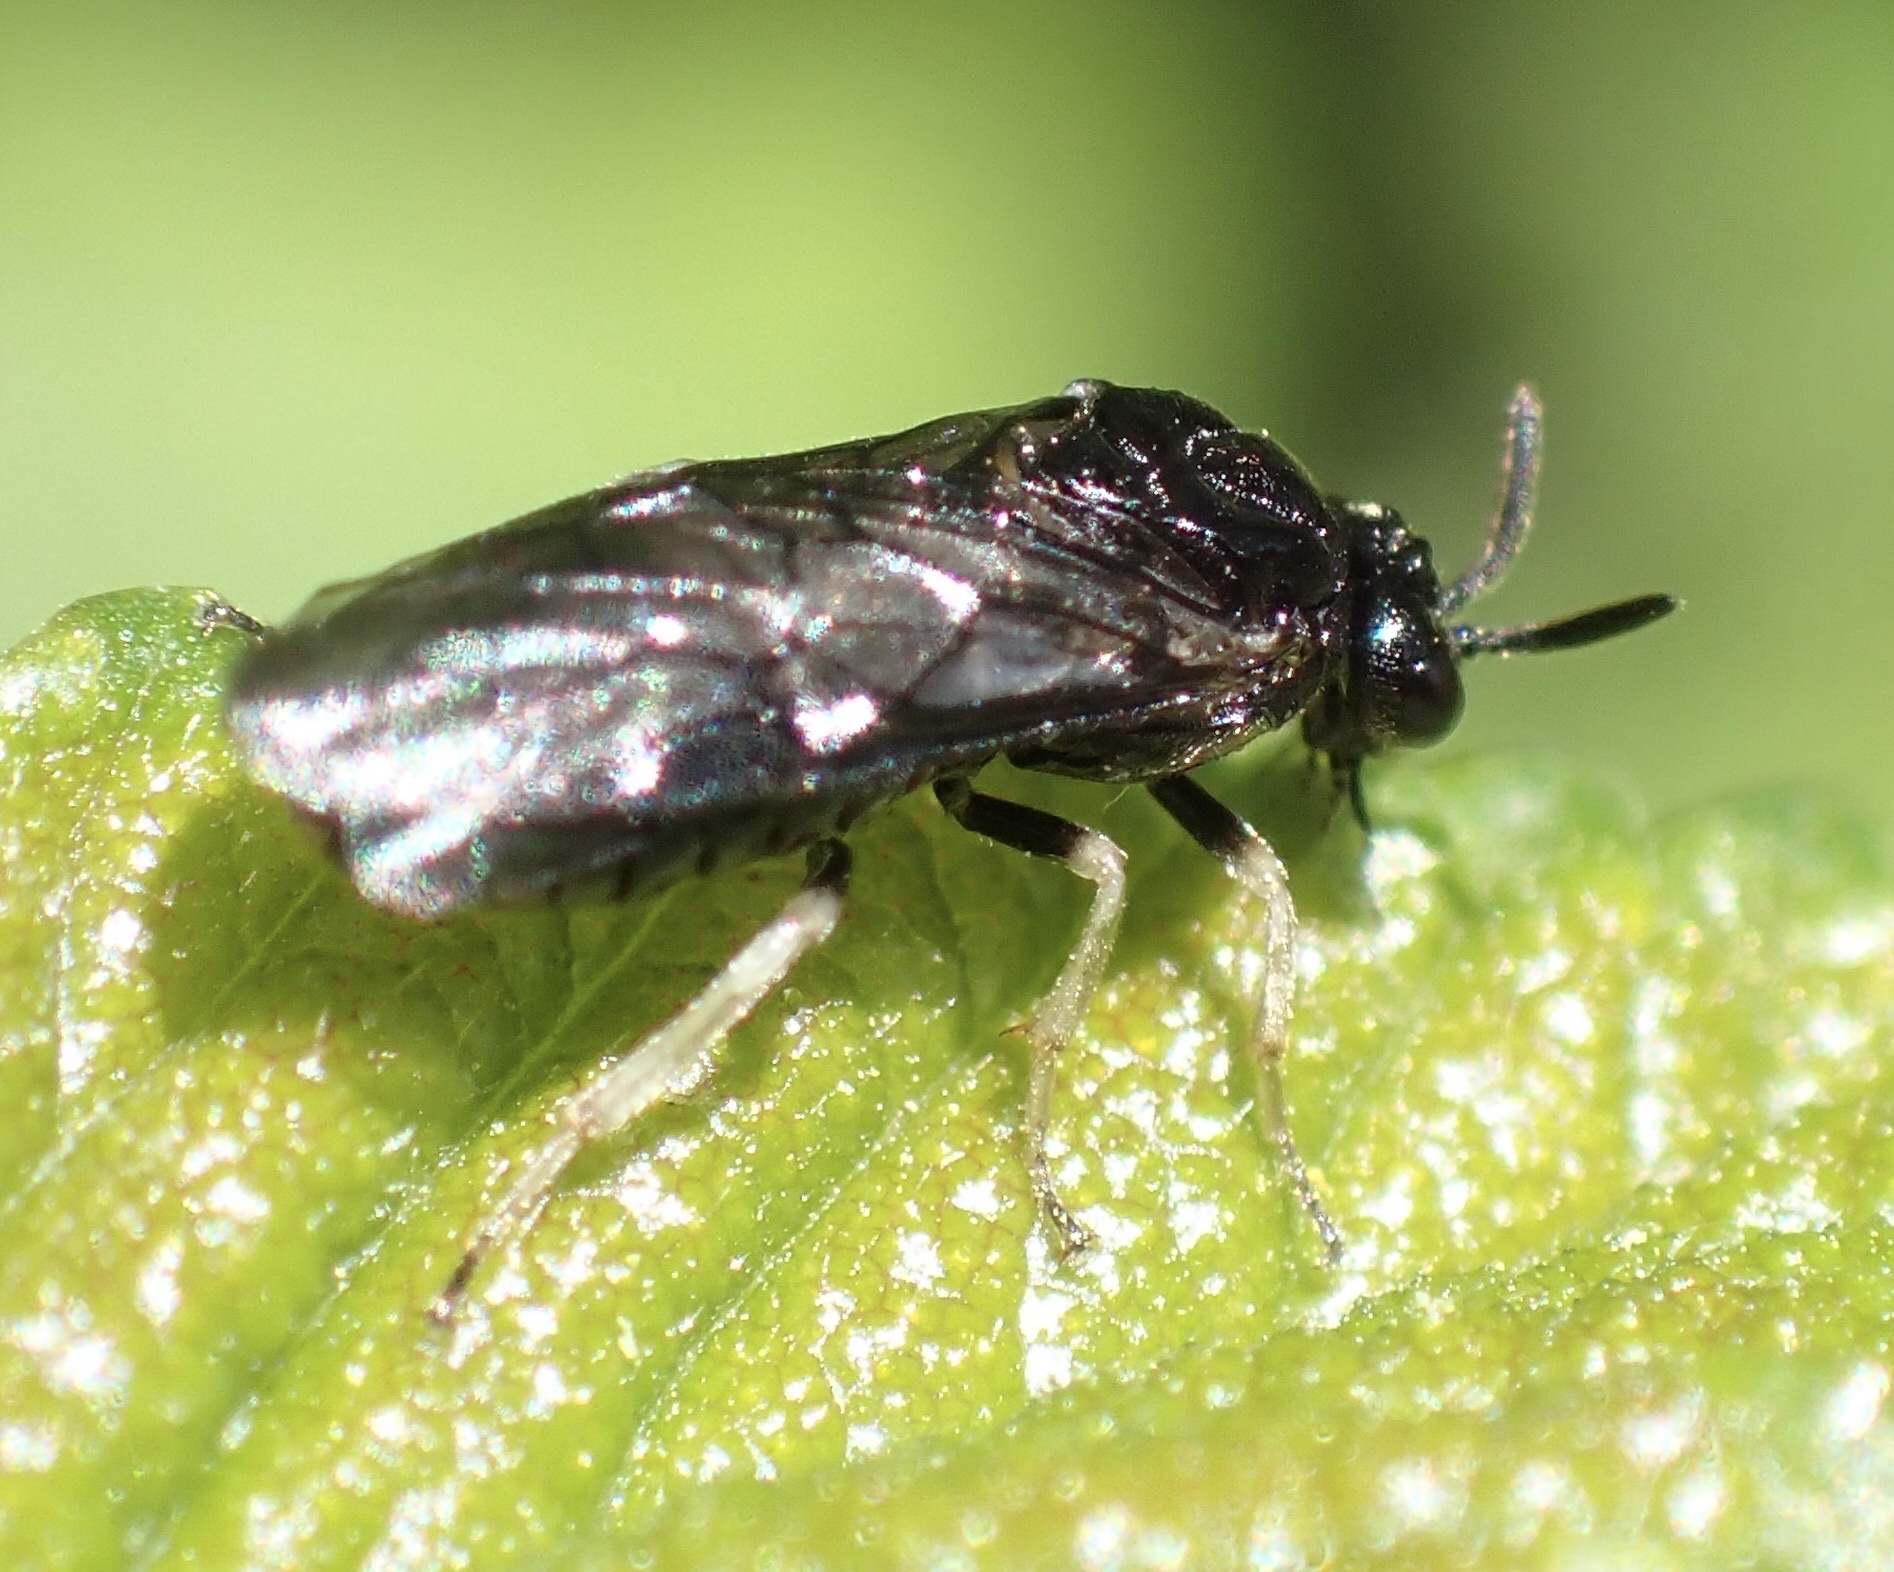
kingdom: Animalia
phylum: Arthropoda
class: Insecta
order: Hymenoptera
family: Argidae
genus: Aproceros
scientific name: Aproceros leucopoda
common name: Zig-zag elm sawfly
